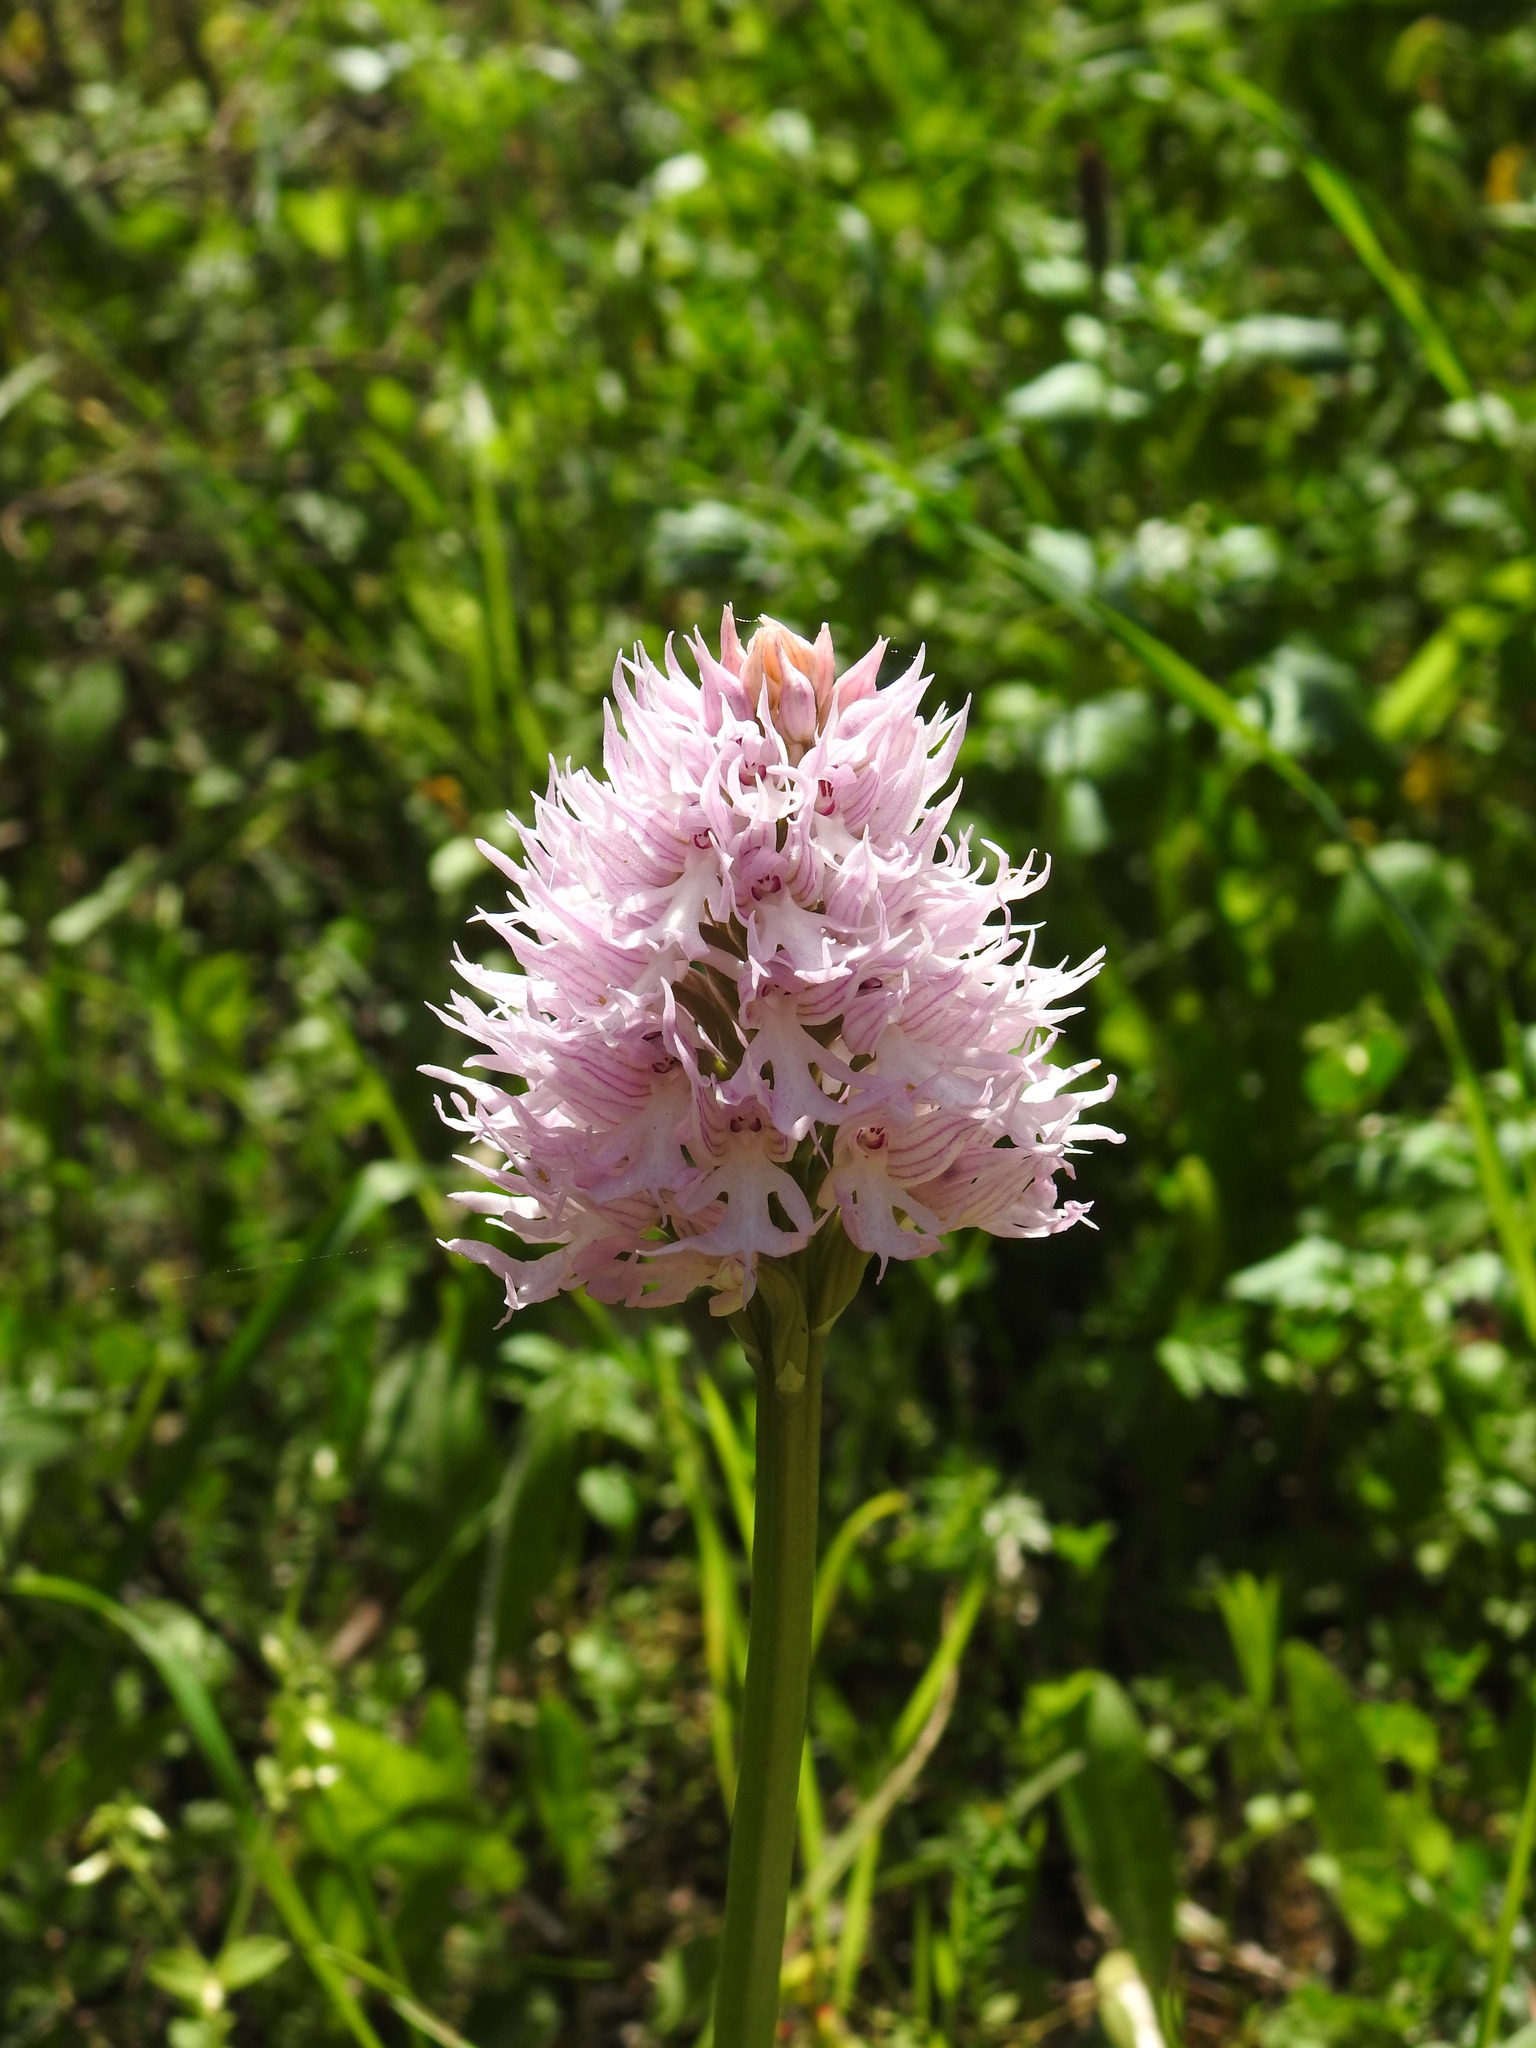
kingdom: Plantae
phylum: Tracheophyta
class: Liliopsida
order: Asparagales
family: Orchidaceae
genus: Orchis
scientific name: Orchis italica
